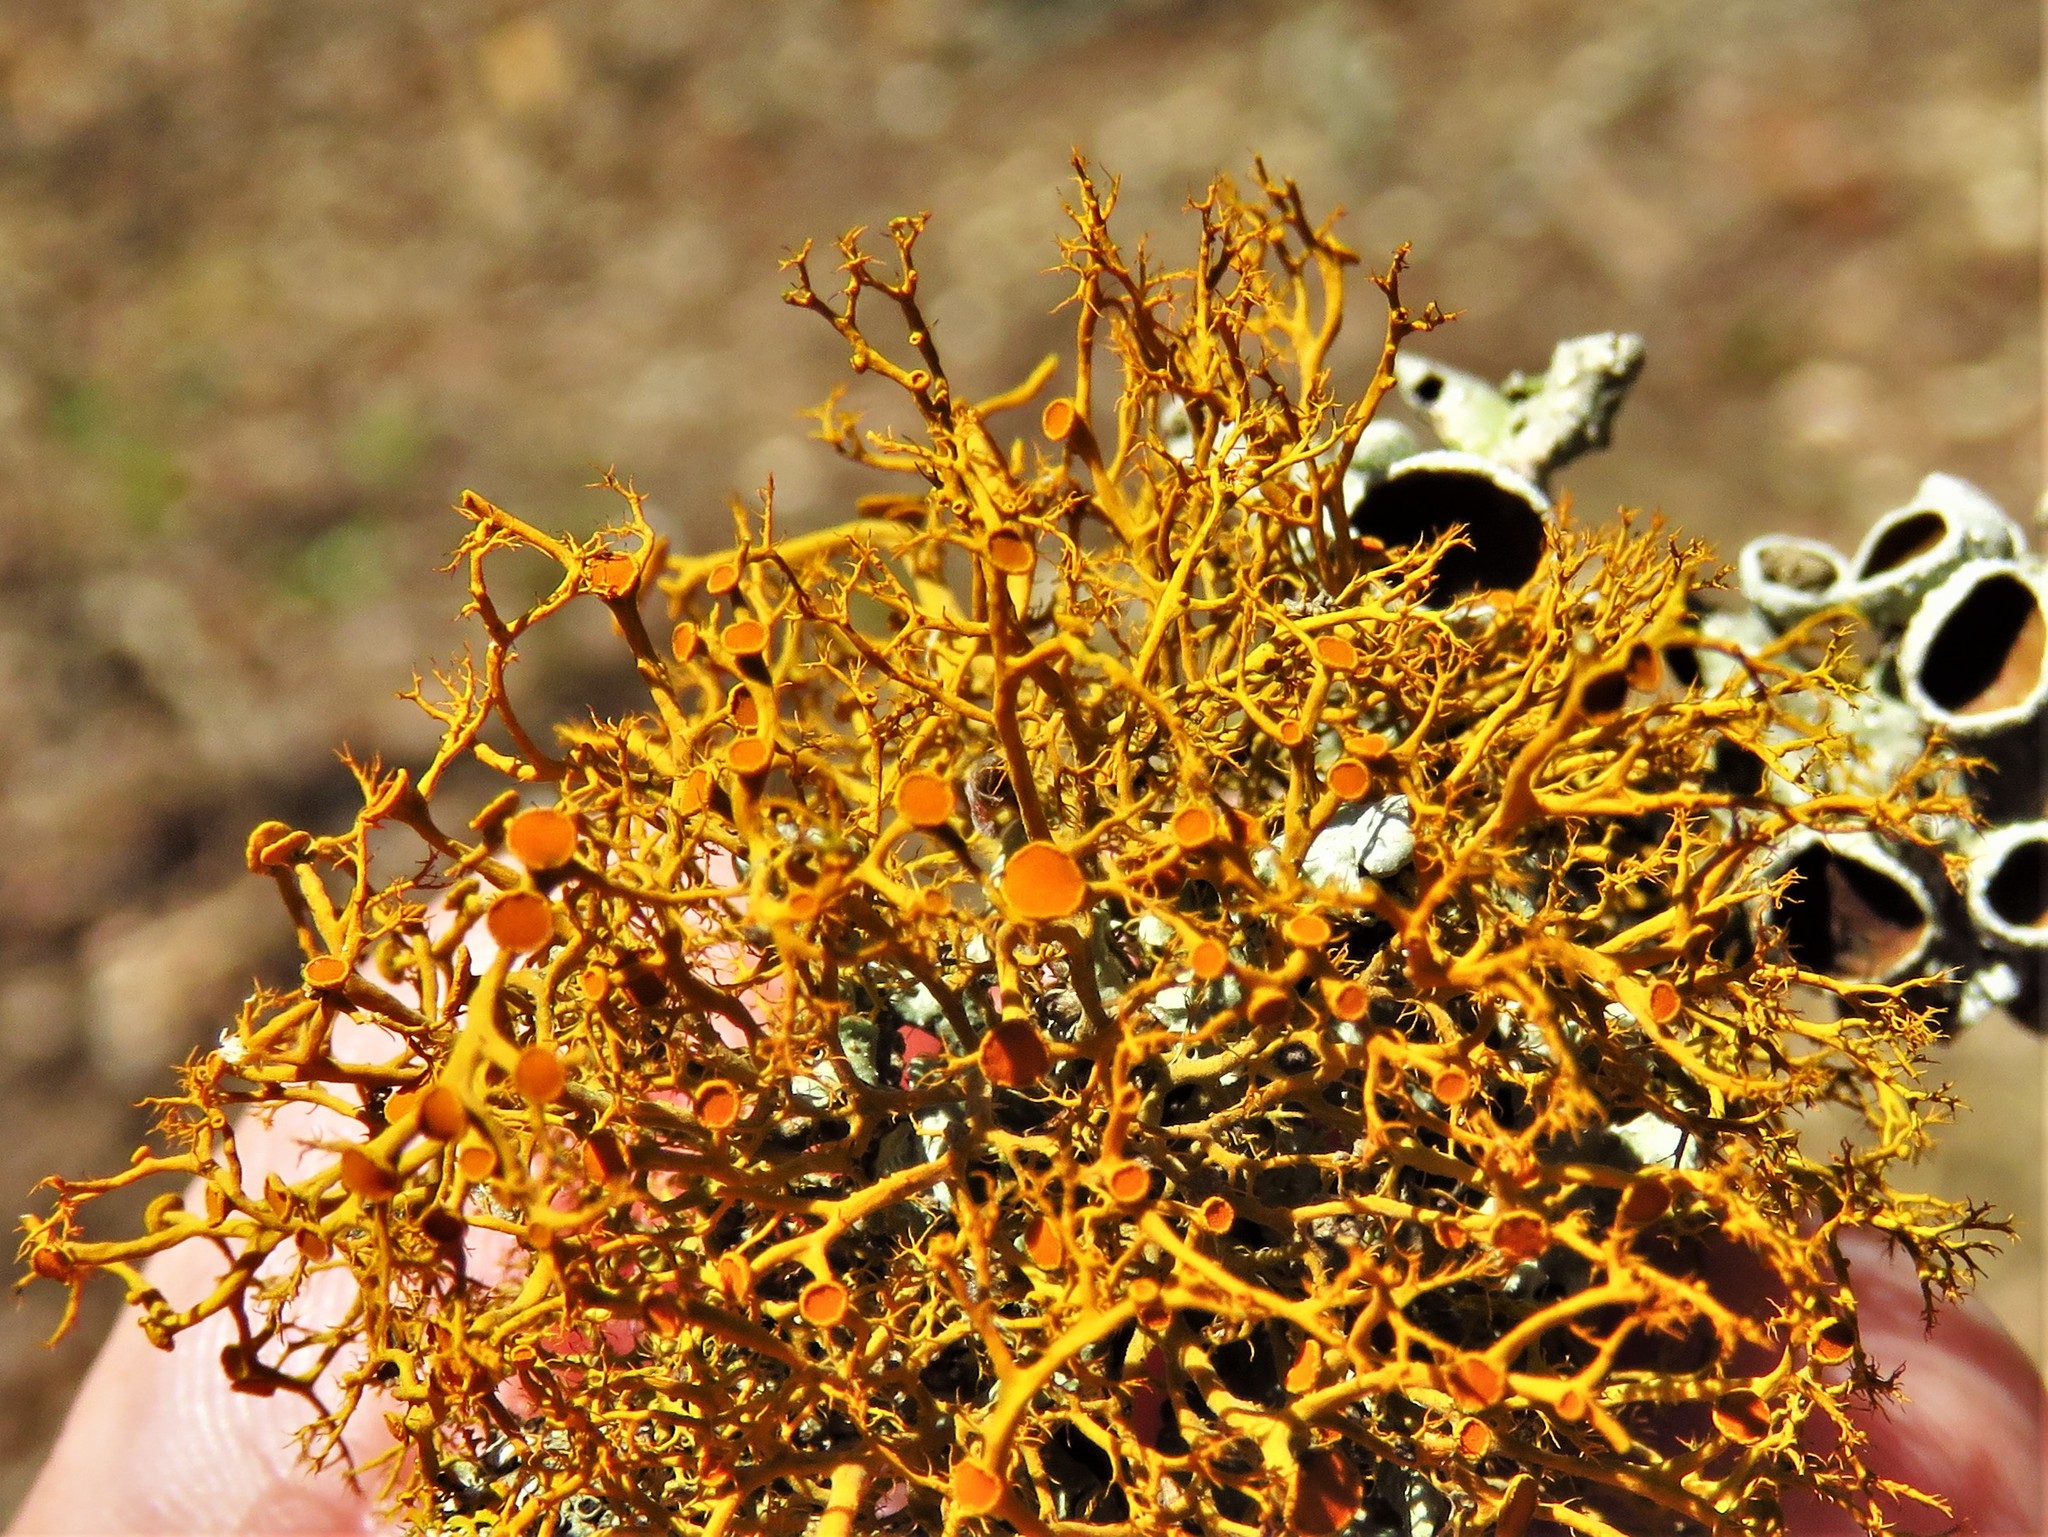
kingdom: Fungi
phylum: Ascomycota
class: Lecanoromycetes
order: Teloschistales
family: Teloschistaceae
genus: Teloschistes
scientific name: Teloschistes exilis
